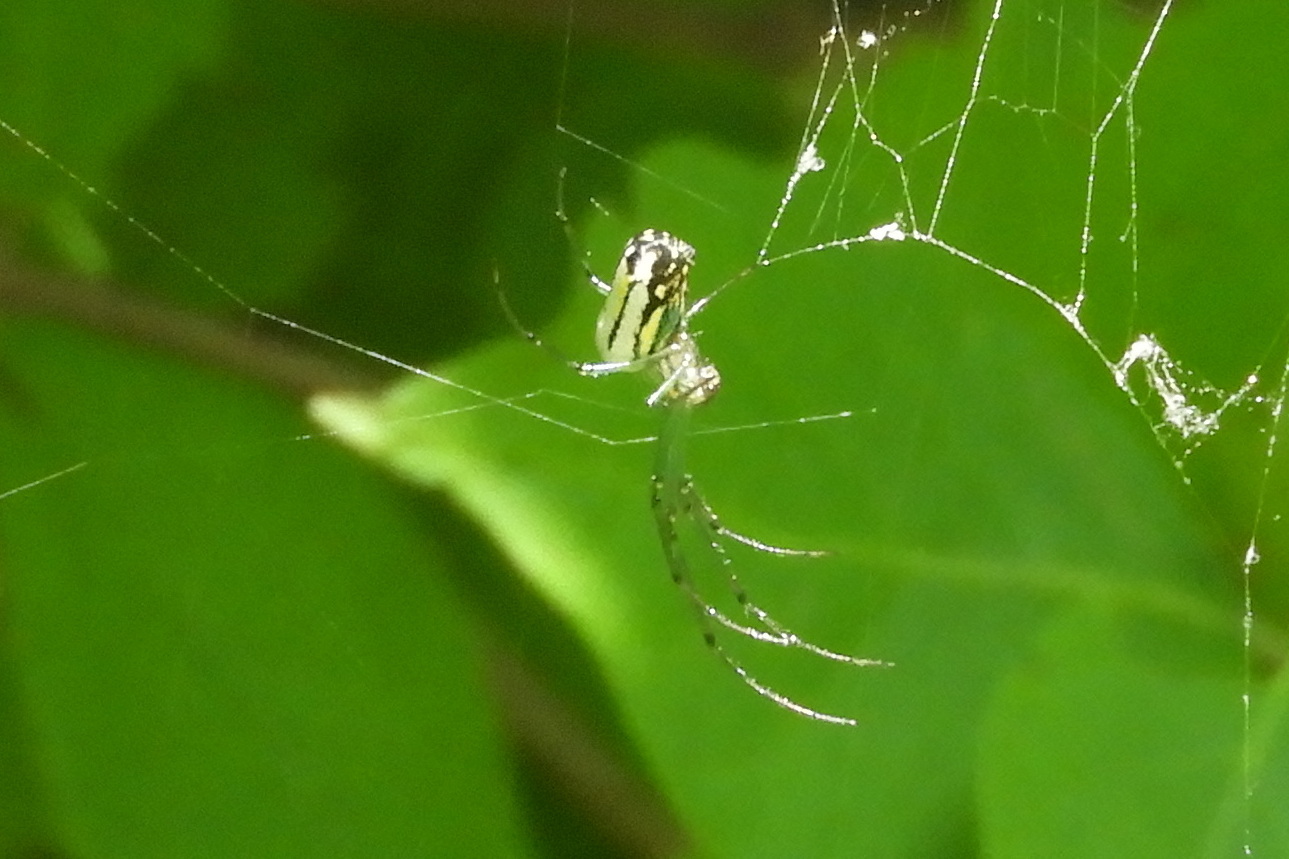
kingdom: Animalia
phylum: Arthropoda
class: Arachnida
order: Araneae
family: Tetragnathidae
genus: Leucauge
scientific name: Leucauge venusta
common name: Longjawed orb weavers
